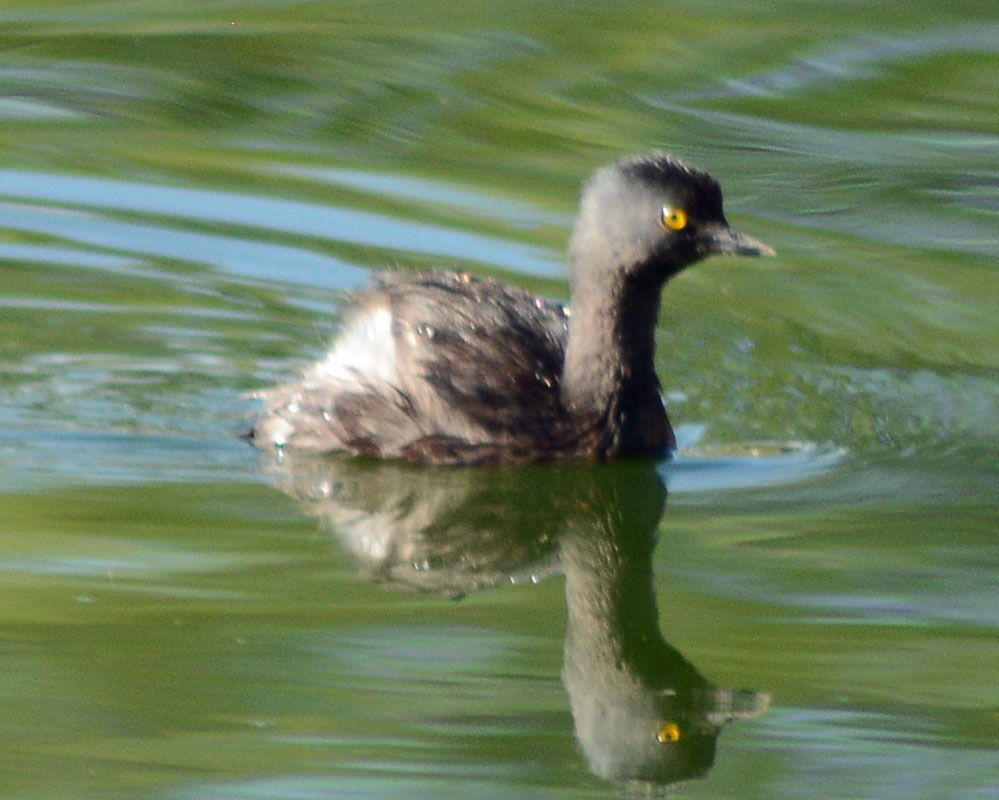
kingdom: Animalia
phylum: Chordata
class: Aves
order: Podicipediformes
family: Podicipedidae
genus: Tachybaptus
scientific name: Tachybaptus dominicus
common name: Least grebe
